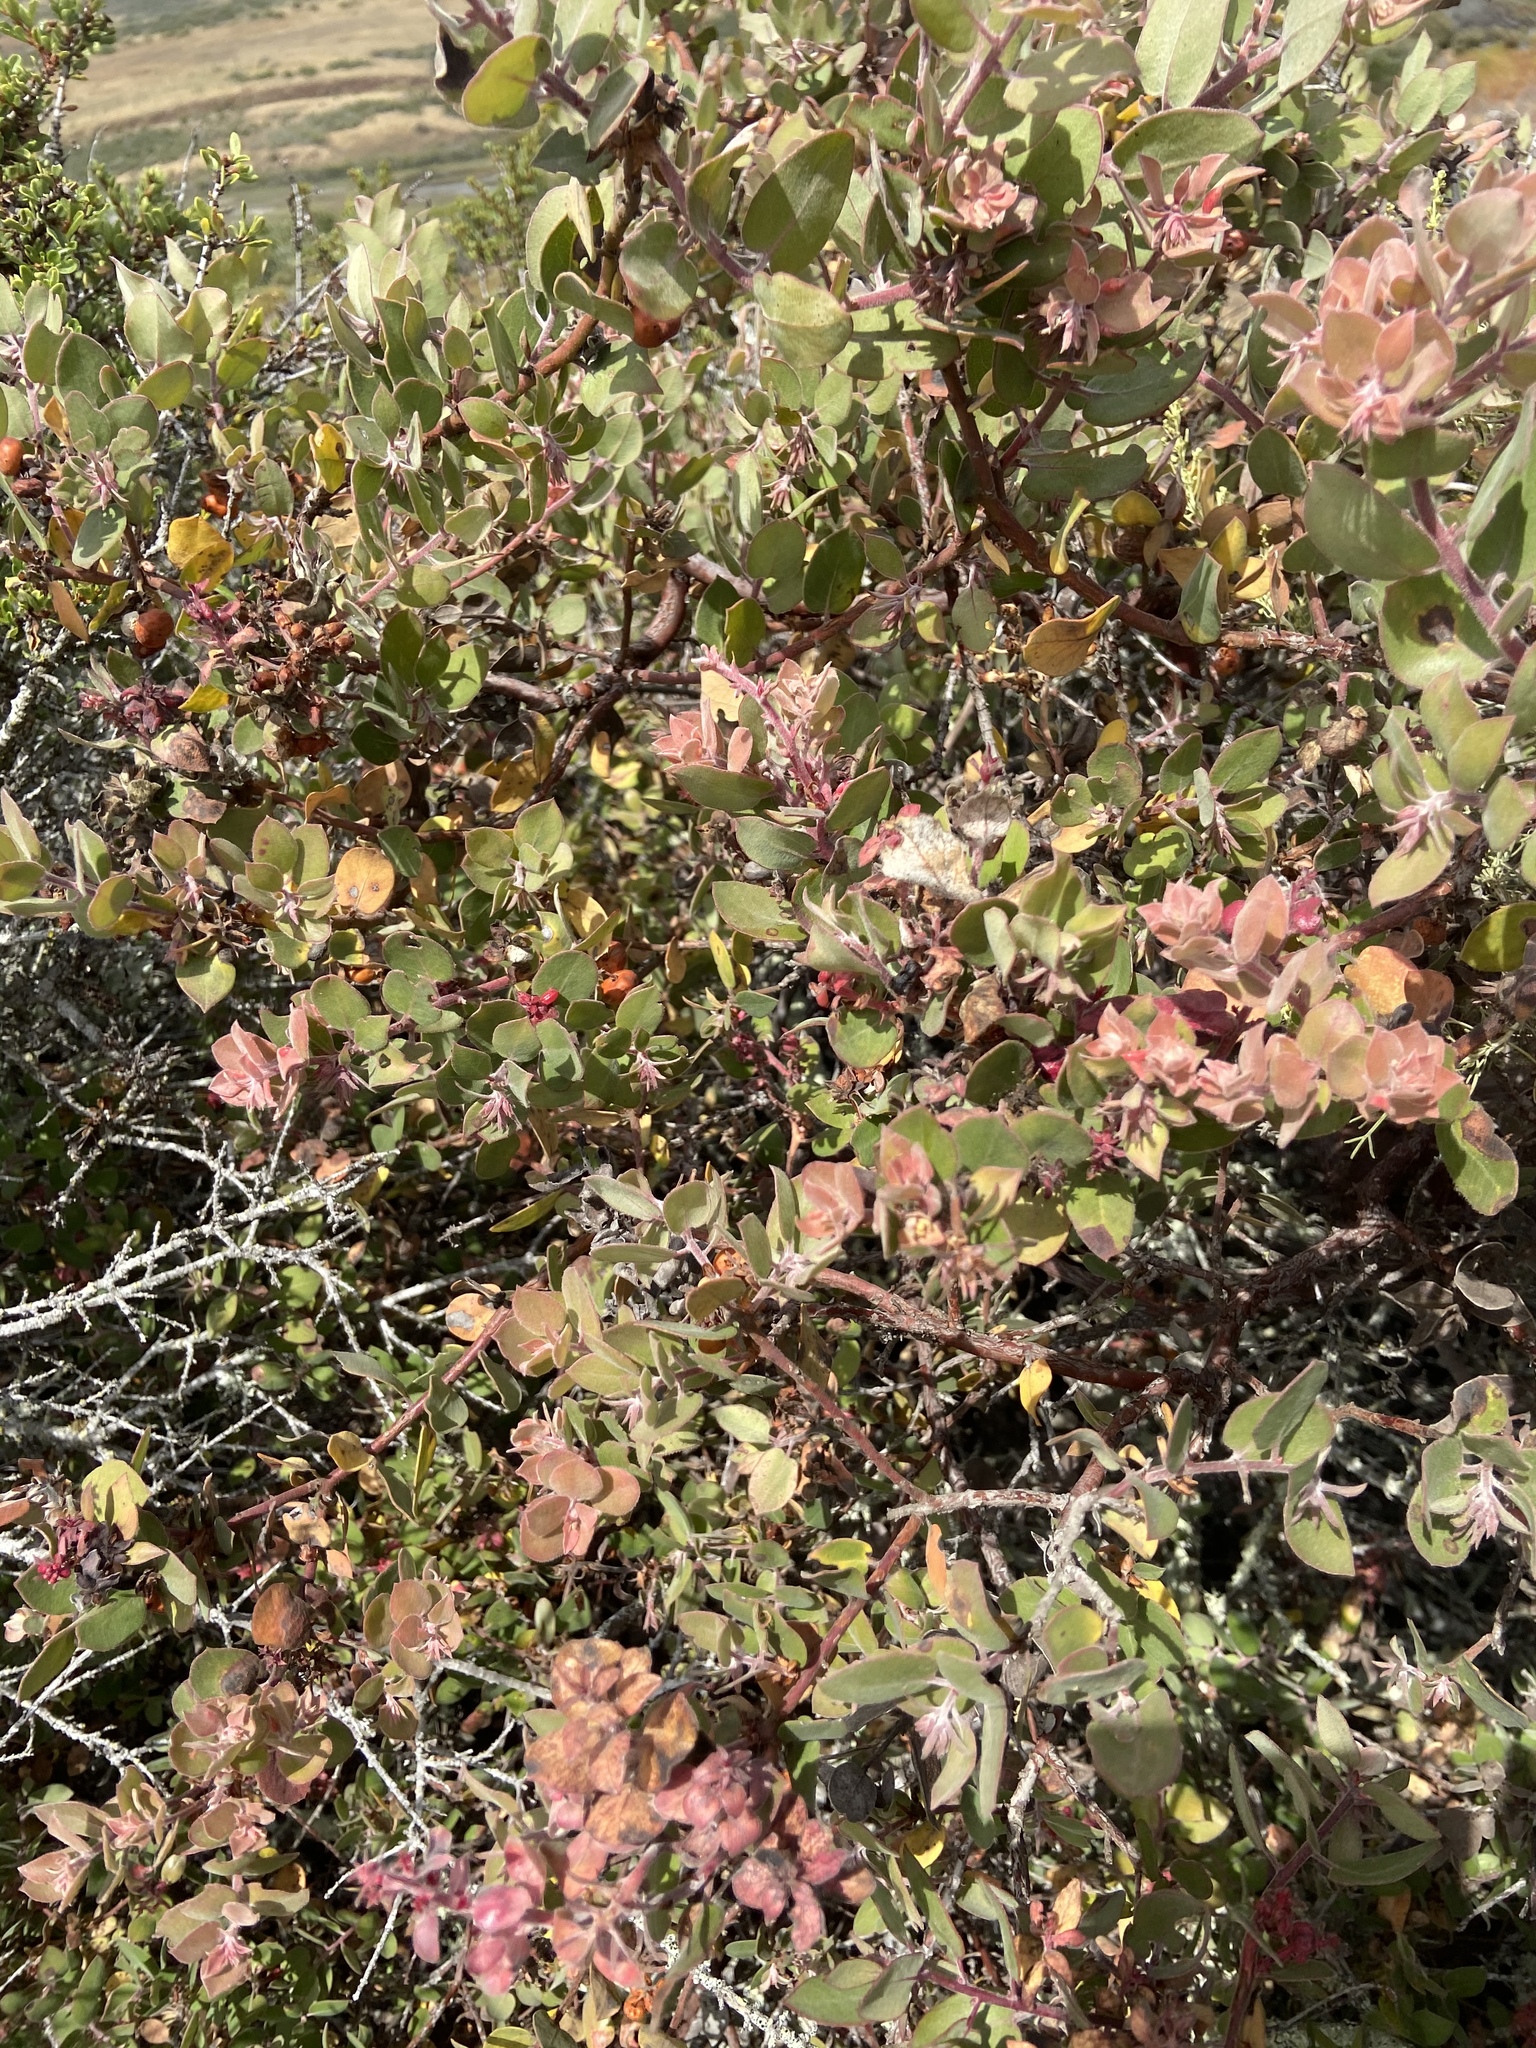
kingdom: Plantae
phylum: Tracheophyta
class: Magnoliopsida
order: Ericales
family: Ericaceae
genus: Arctostaphylos
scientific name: Arctostaphylos morroensis
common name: Morro manzanita
